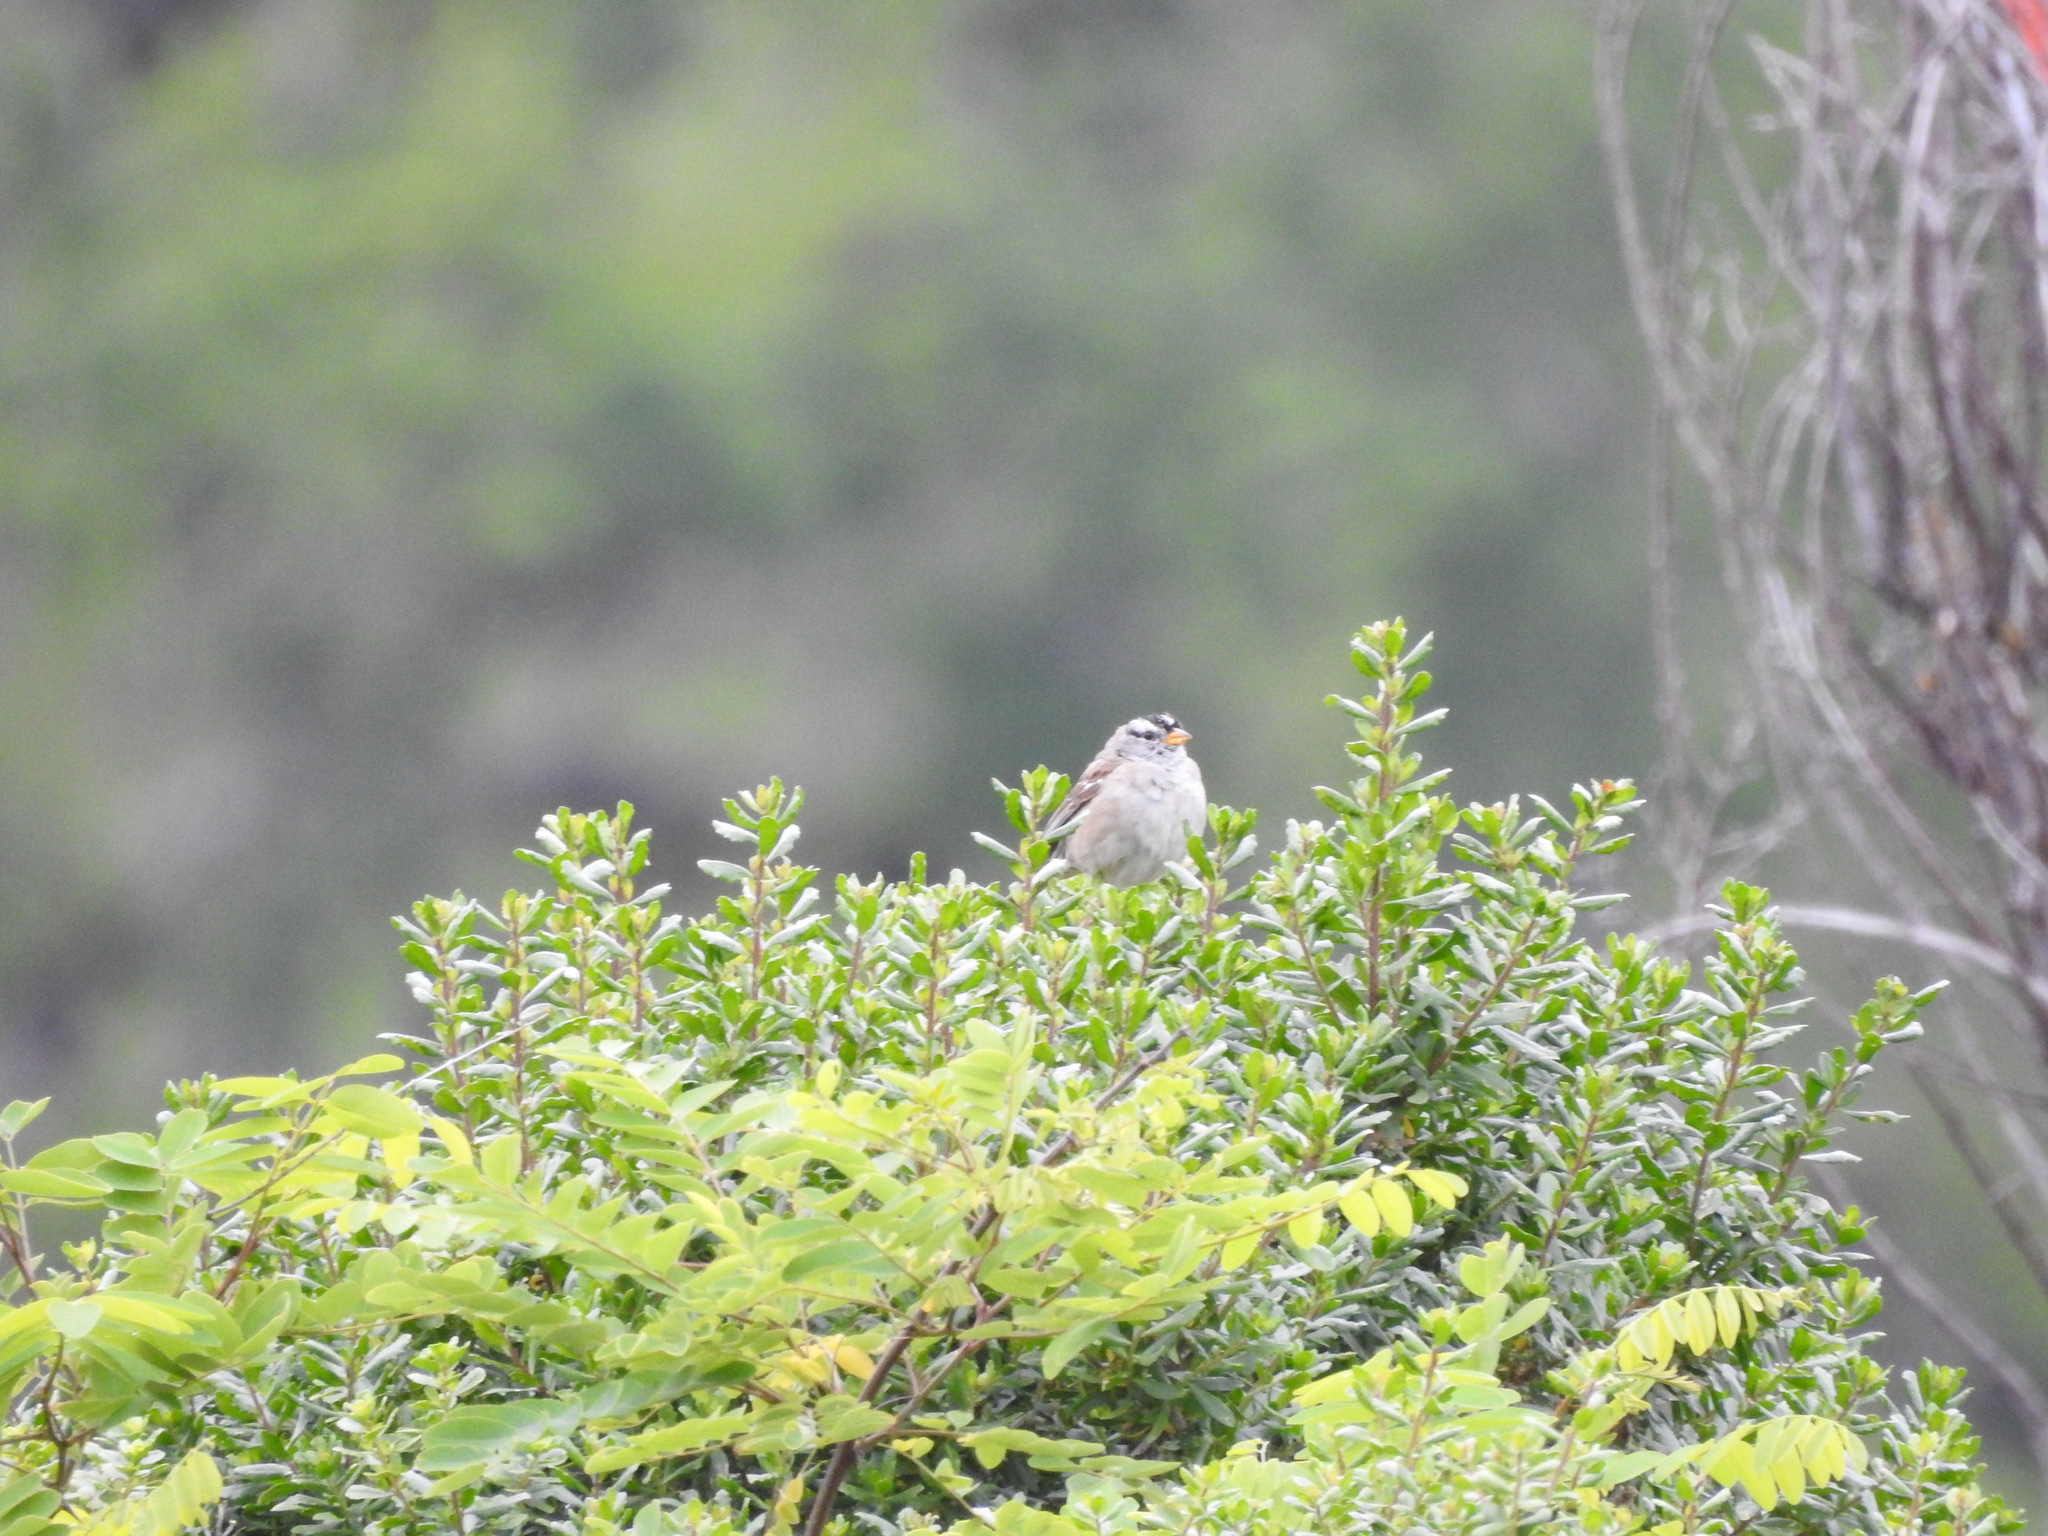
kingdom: Animalia
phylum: Chordata
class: Aves
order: Passeriformes
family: Passerellidae
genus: Zonotrichia
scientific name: Zonotrichia leucophrys
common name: White-crowned sparrow
